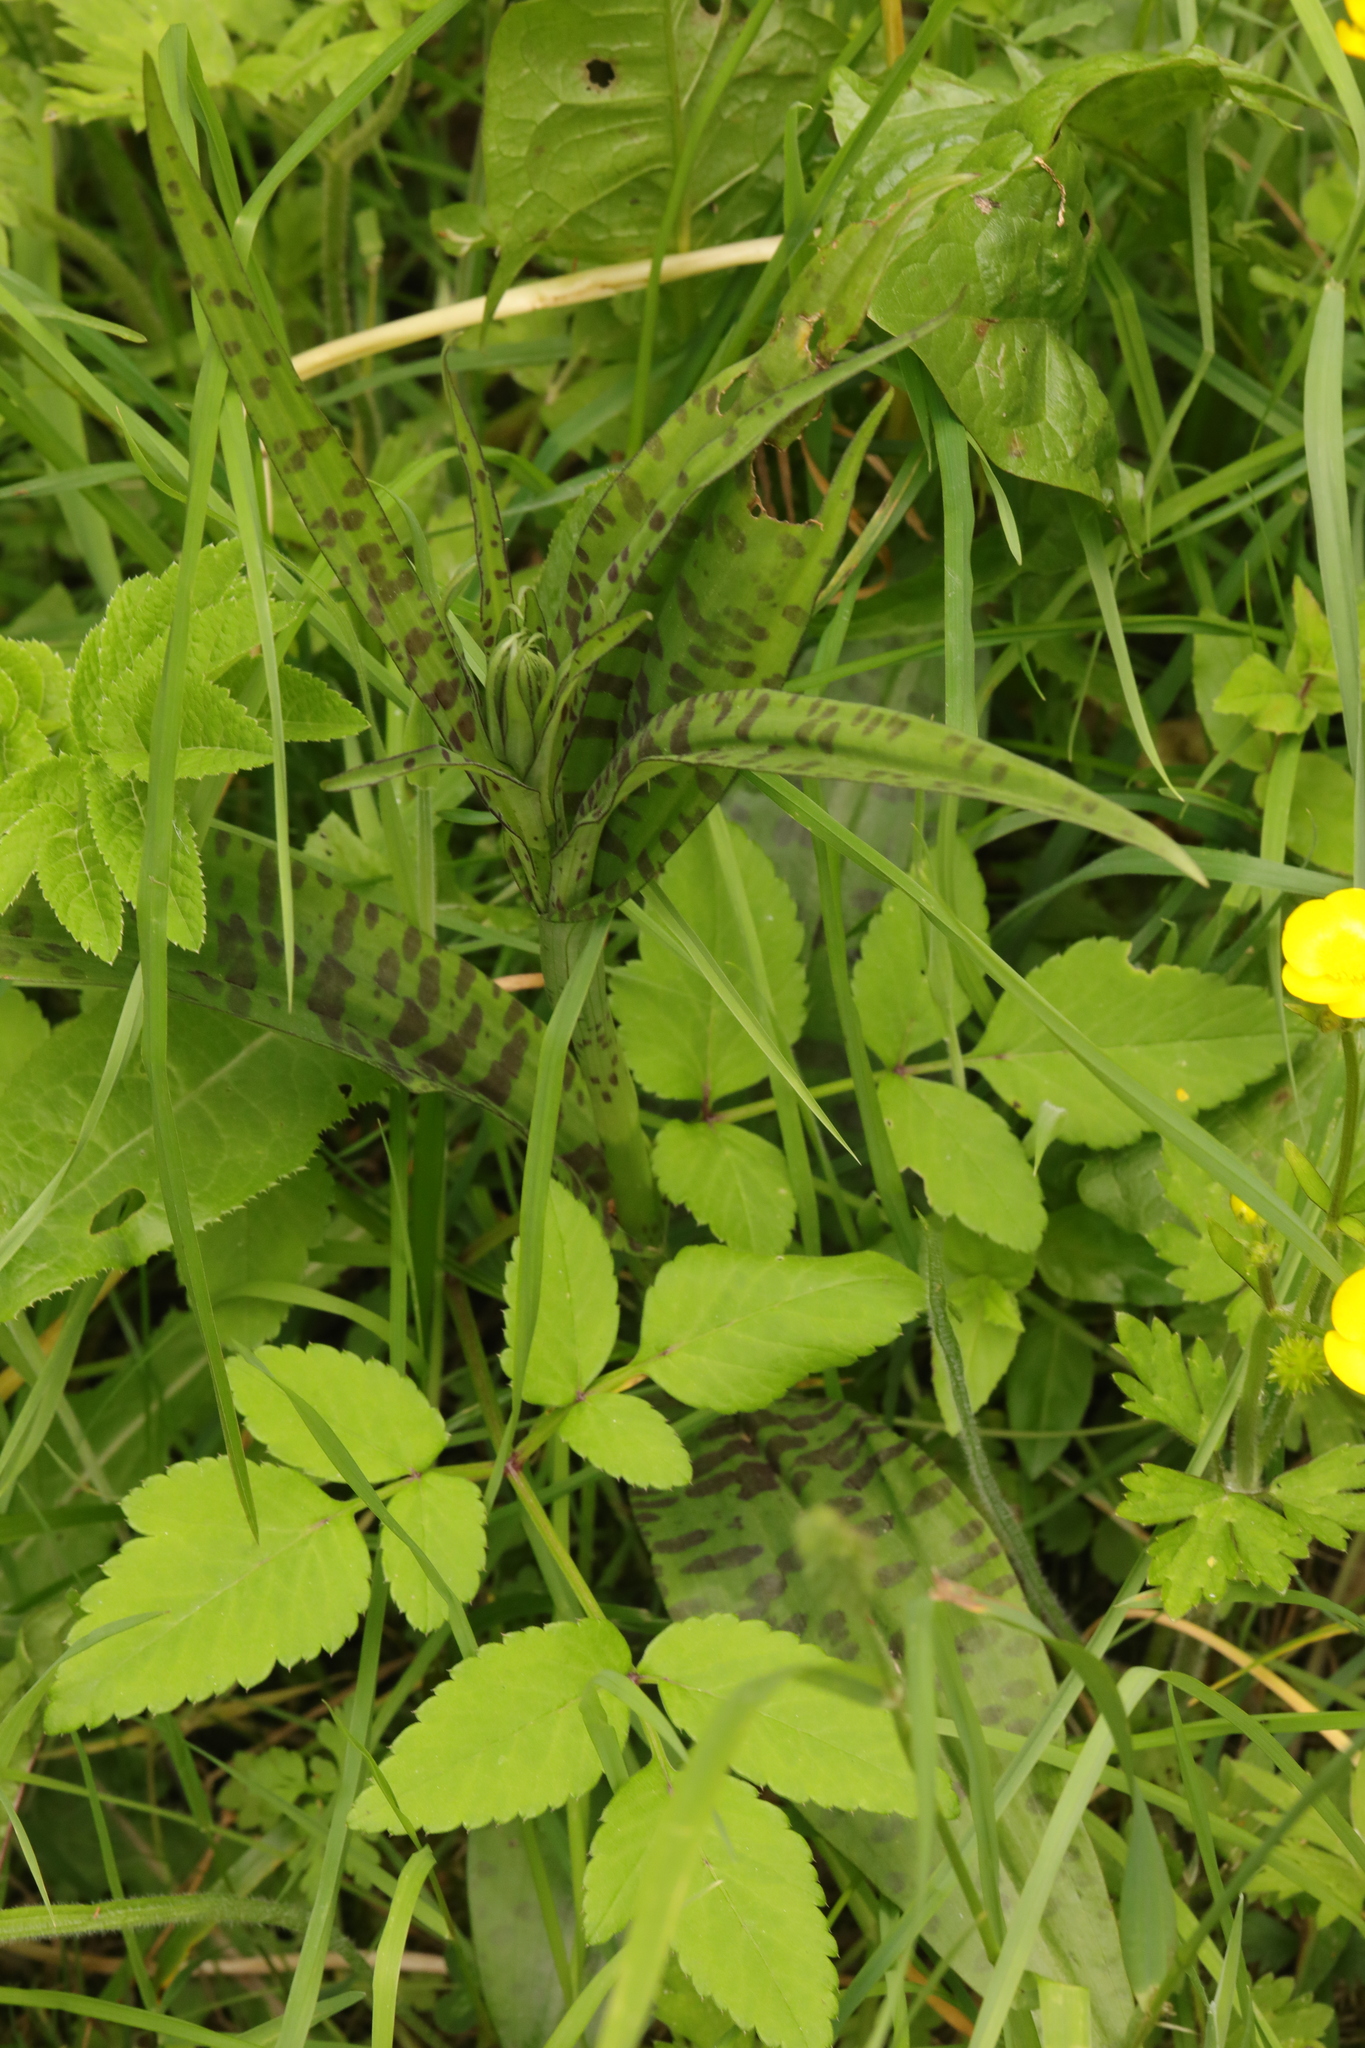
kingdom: Plantae
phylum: Tracheophyta
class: Liliopsida
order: Asparagales
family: Orchidaceae
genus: Dactylorhiza
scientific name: Dactylorhiza maculata
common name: Heath spotted-orchid
